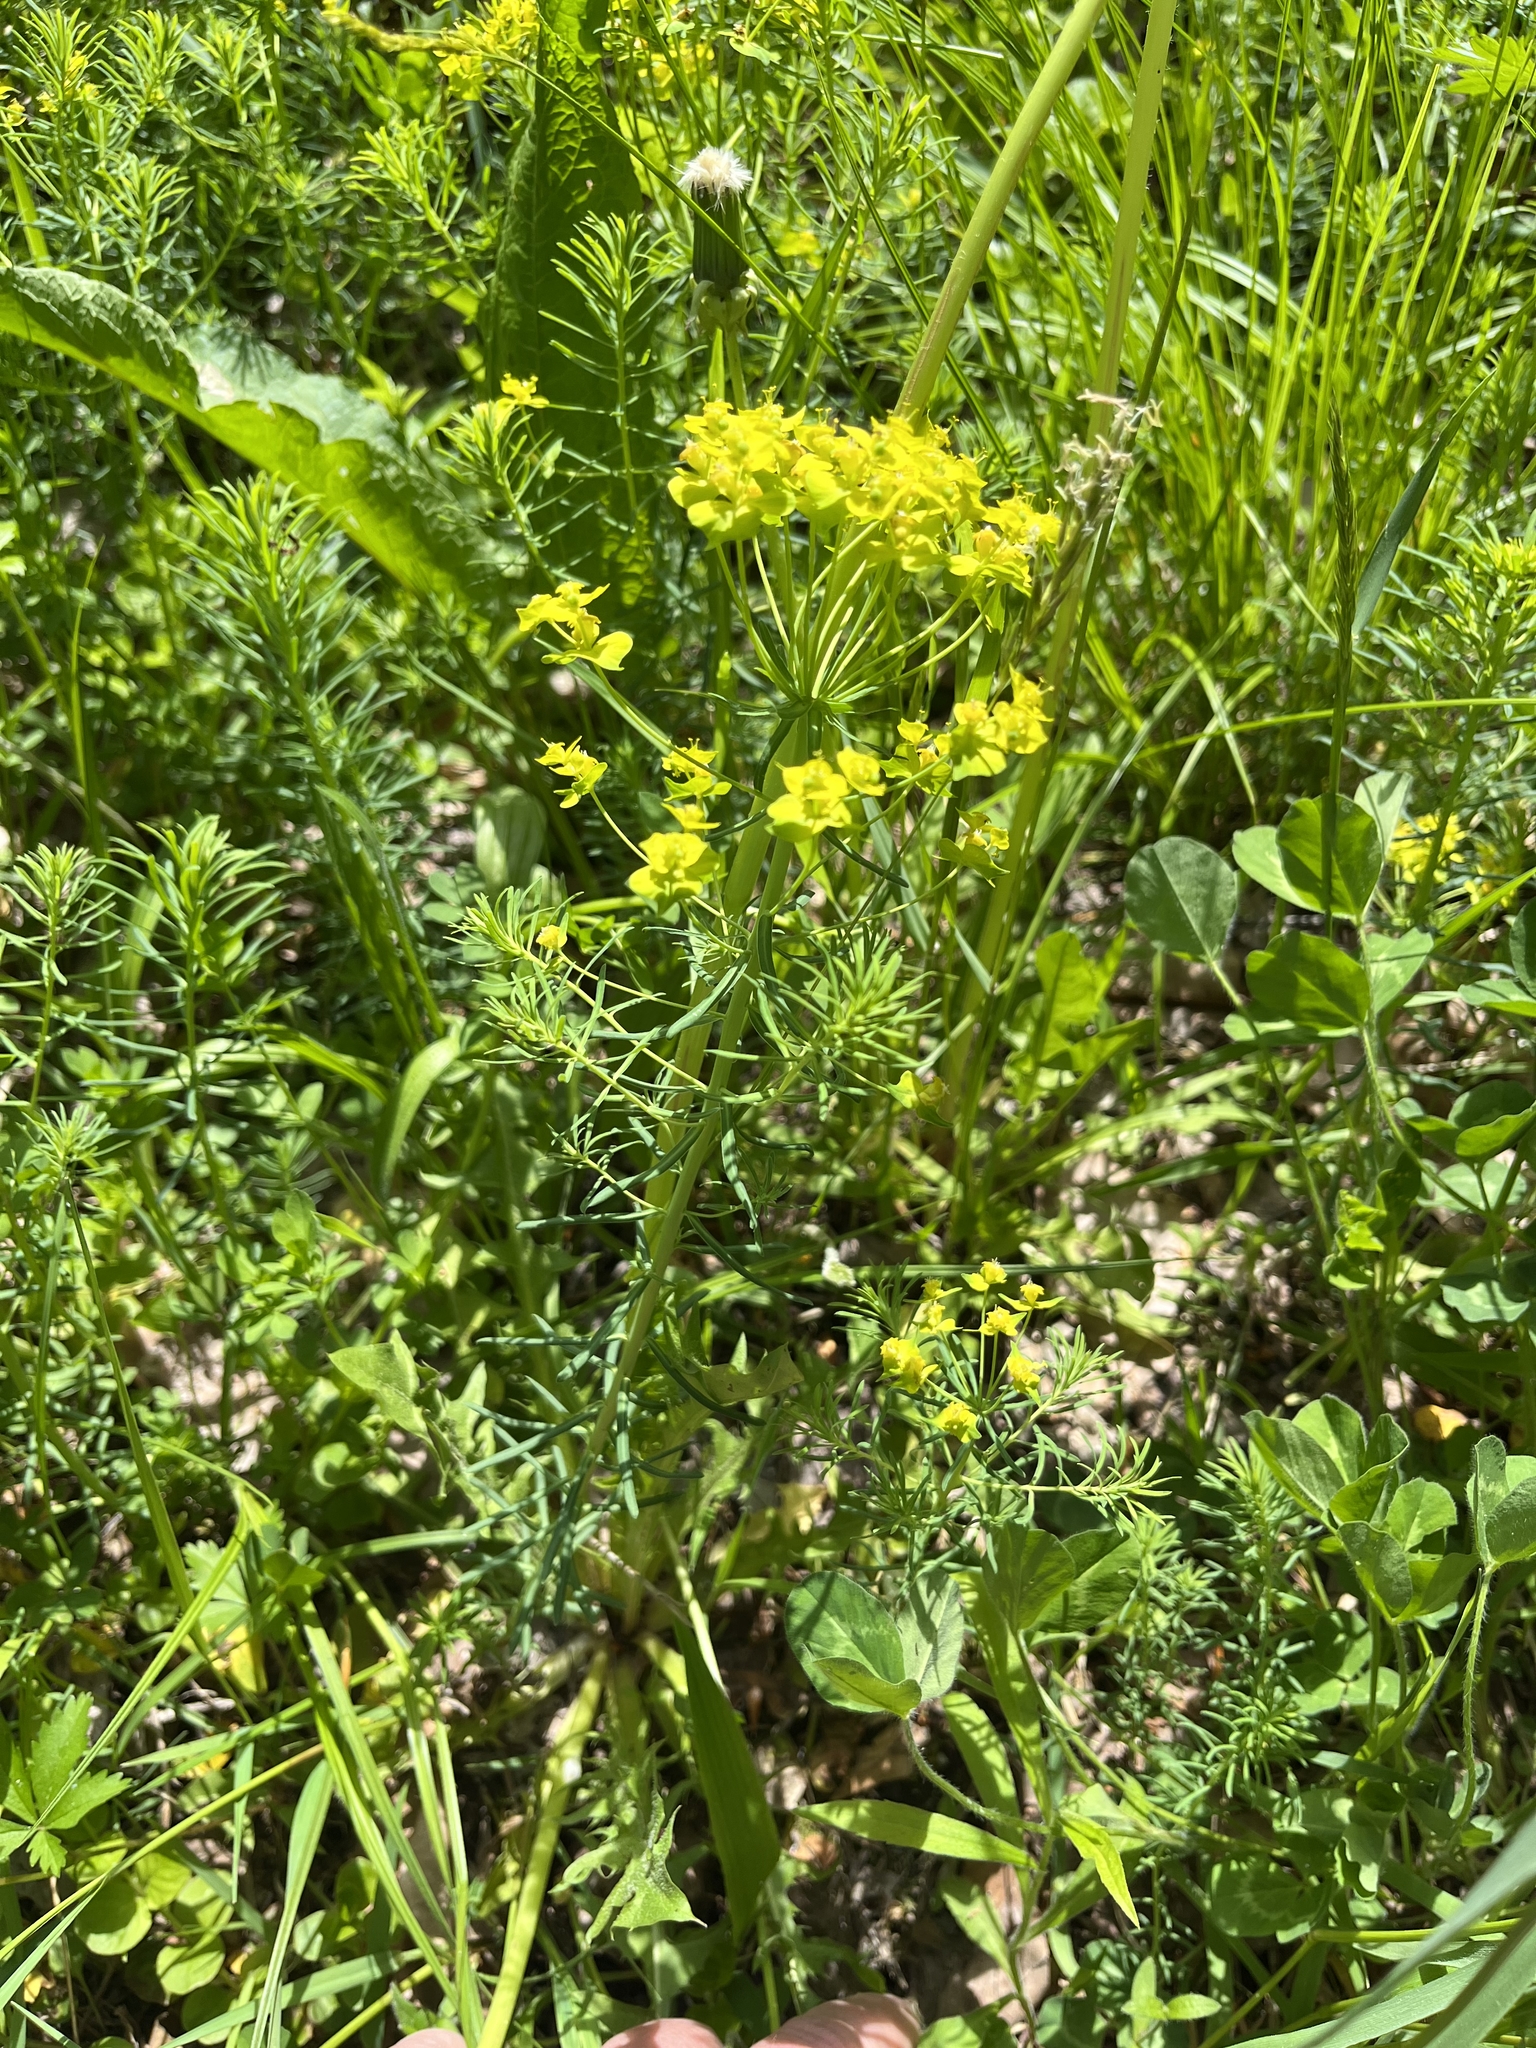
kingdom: Plantae
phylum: Tracheophyta
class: Magnoliopsida
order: Malpighiales
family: Euphorbiaceae
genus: Euphorbia
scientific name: Euphorbia cyparissias
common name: Cypress spurge
